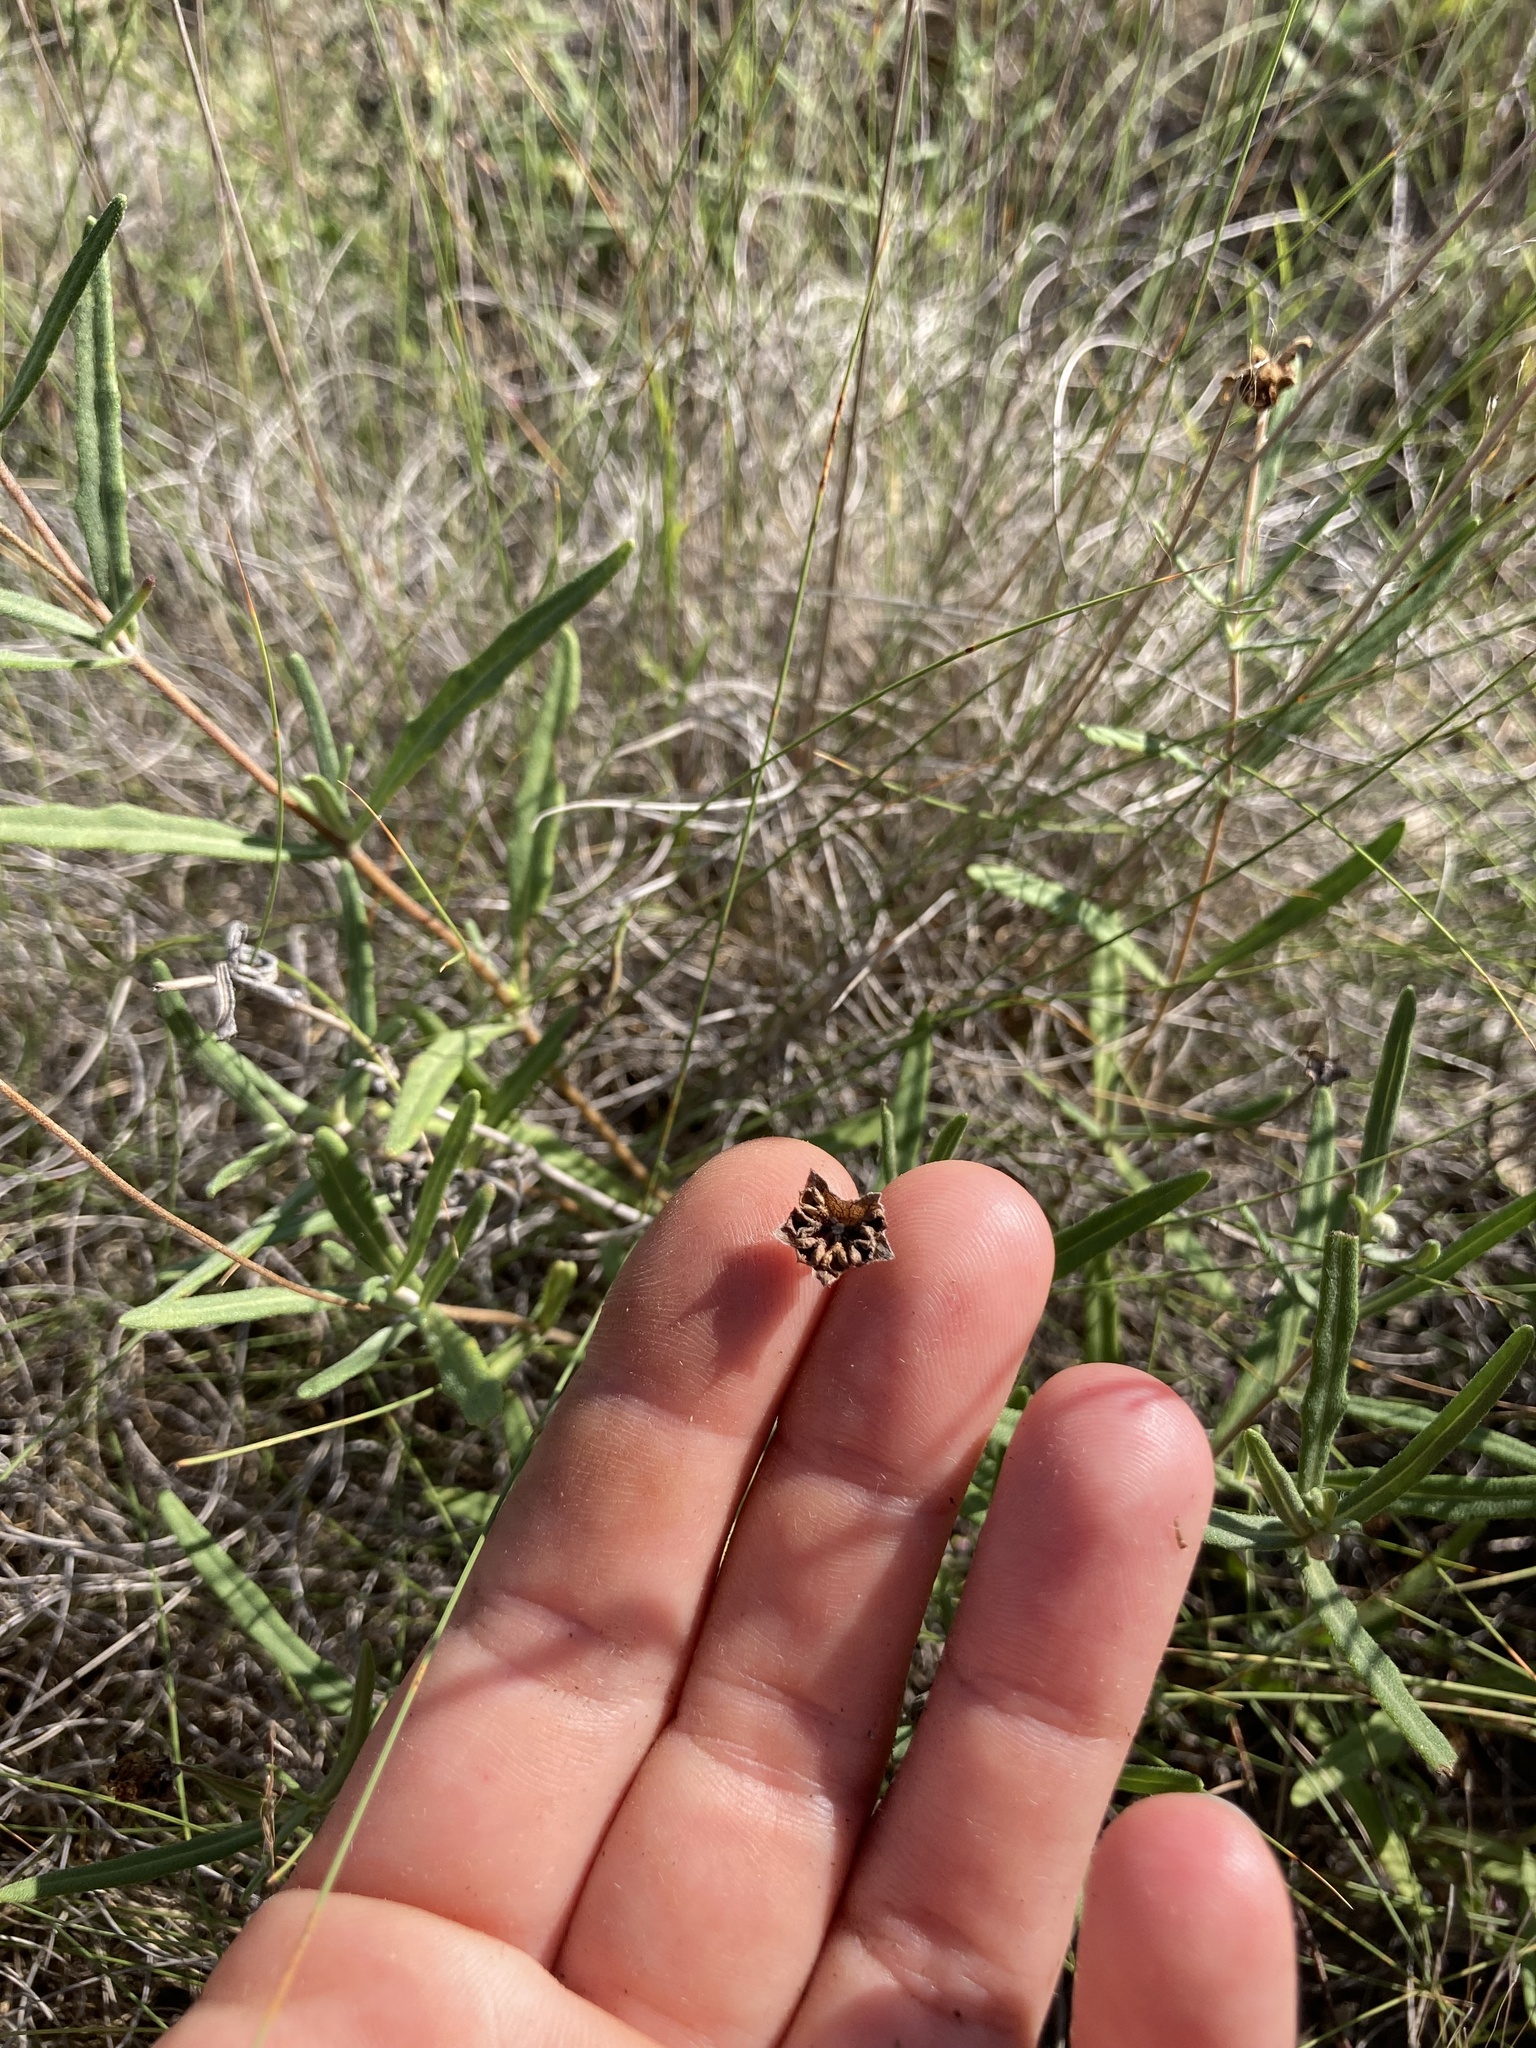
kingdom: Plantae
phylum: Tracheophyta
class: Magnoliopsida
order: Asterales
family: Asteraceae
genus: Melampodium
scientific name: Melampodium leucanthum
